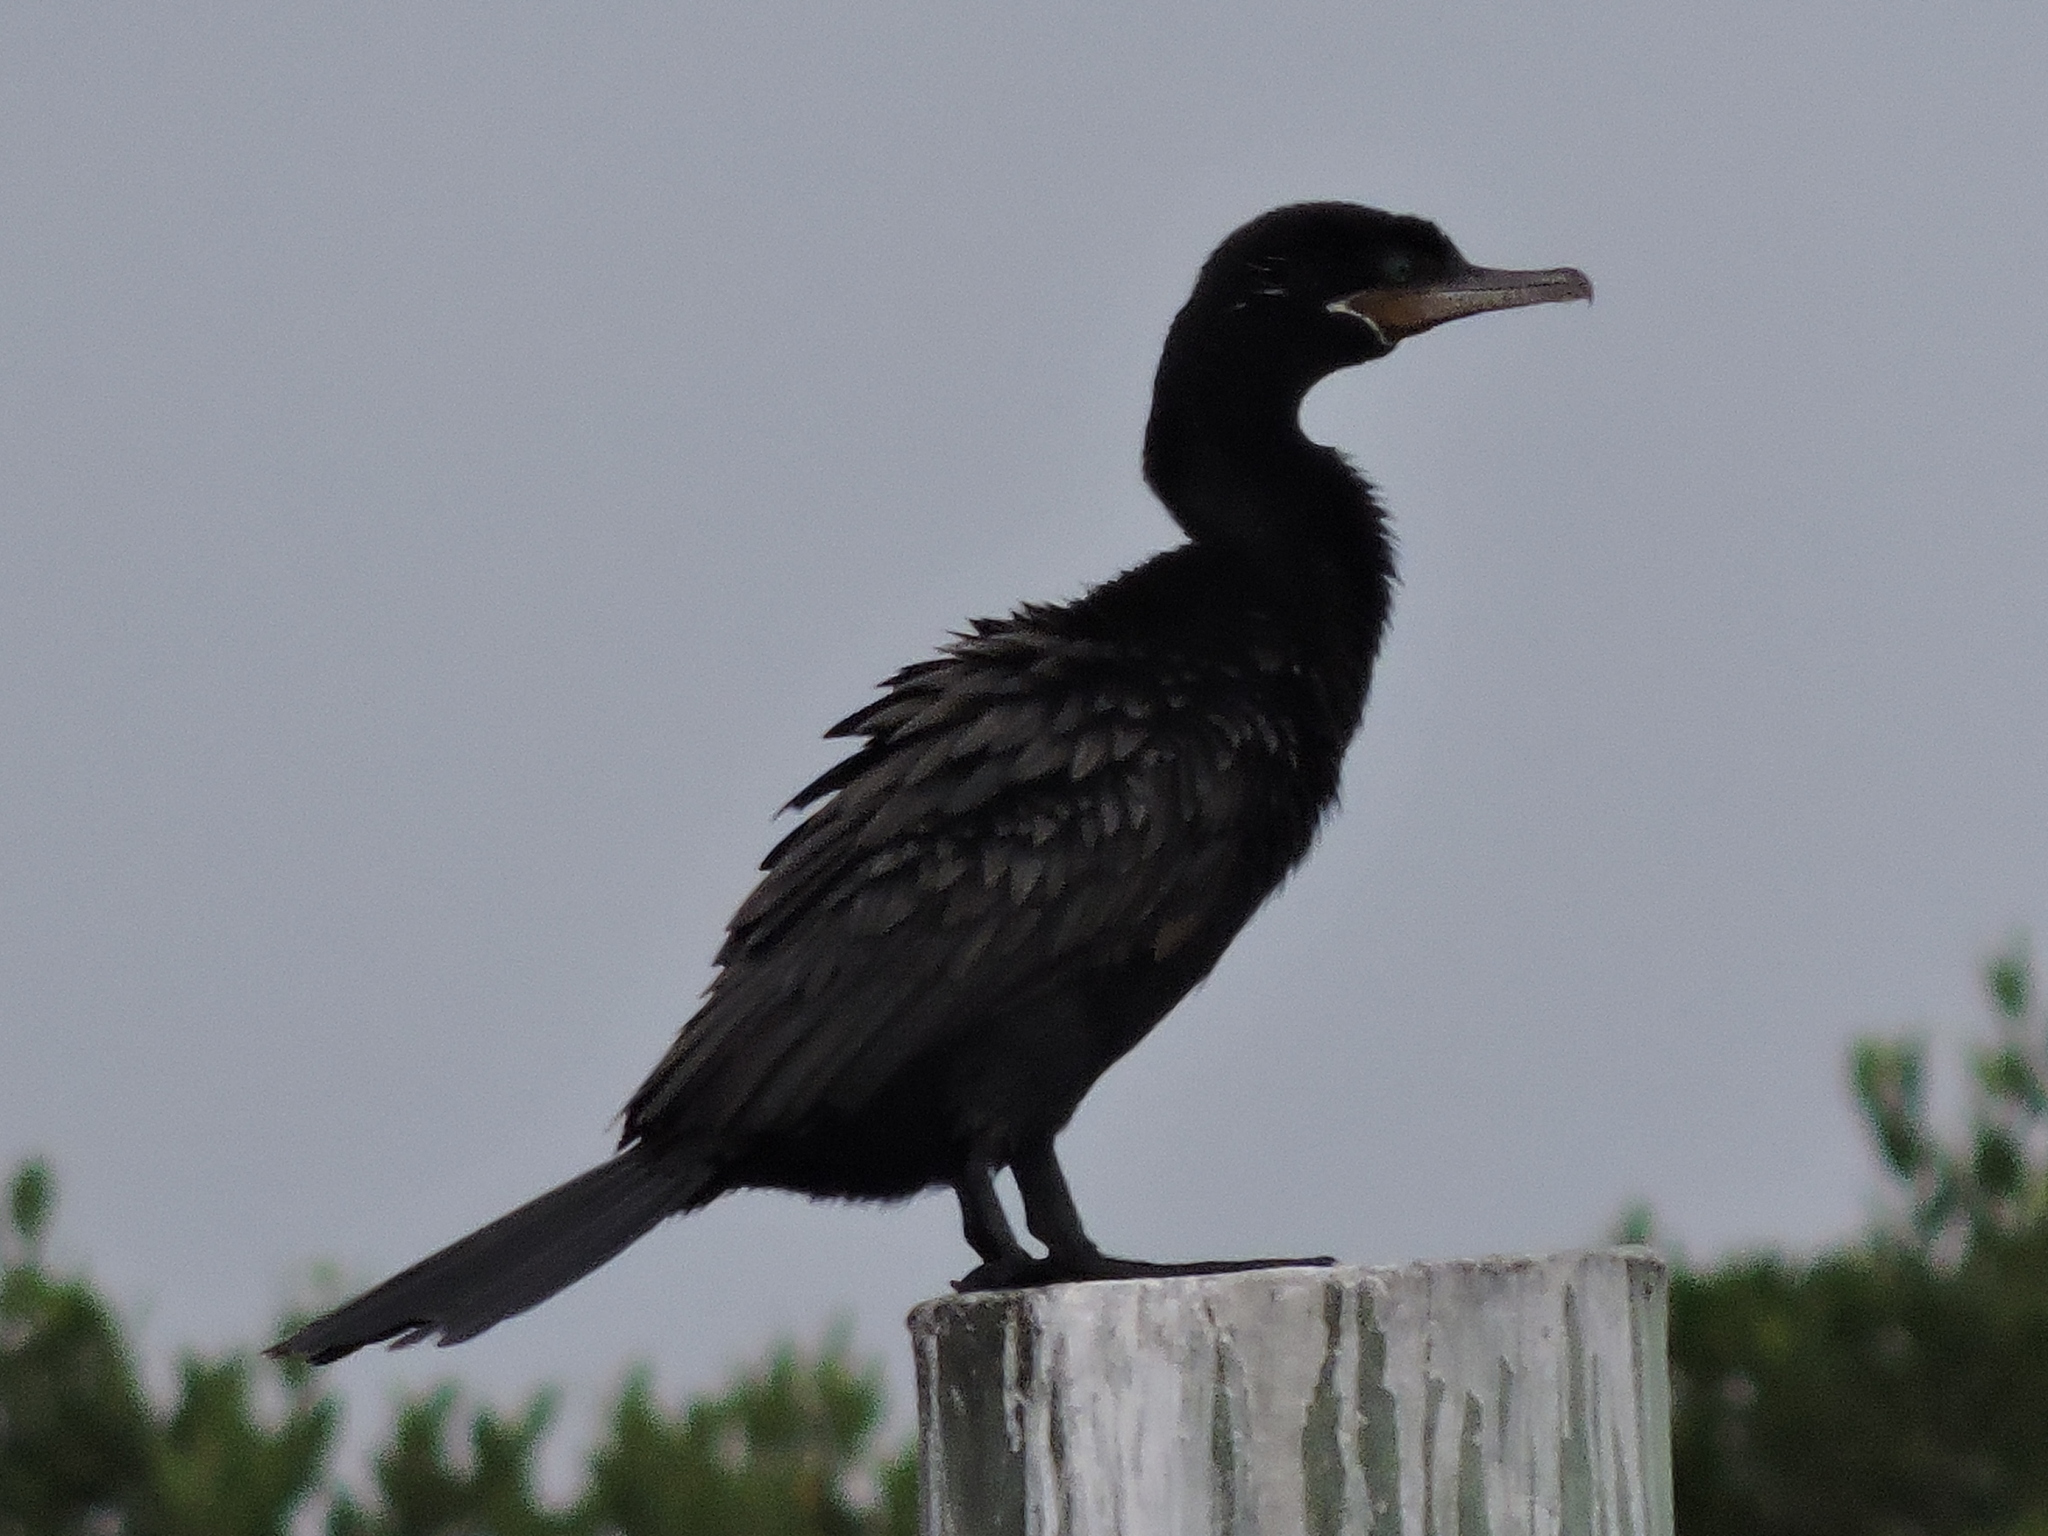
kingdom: Animalia
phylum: Chordata
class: Aves
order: Suliformes
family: Phalacrocoracidae
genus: Phalacrocorax
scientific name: Phalacrocorax brasilianus
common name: Neotropic cormorant
